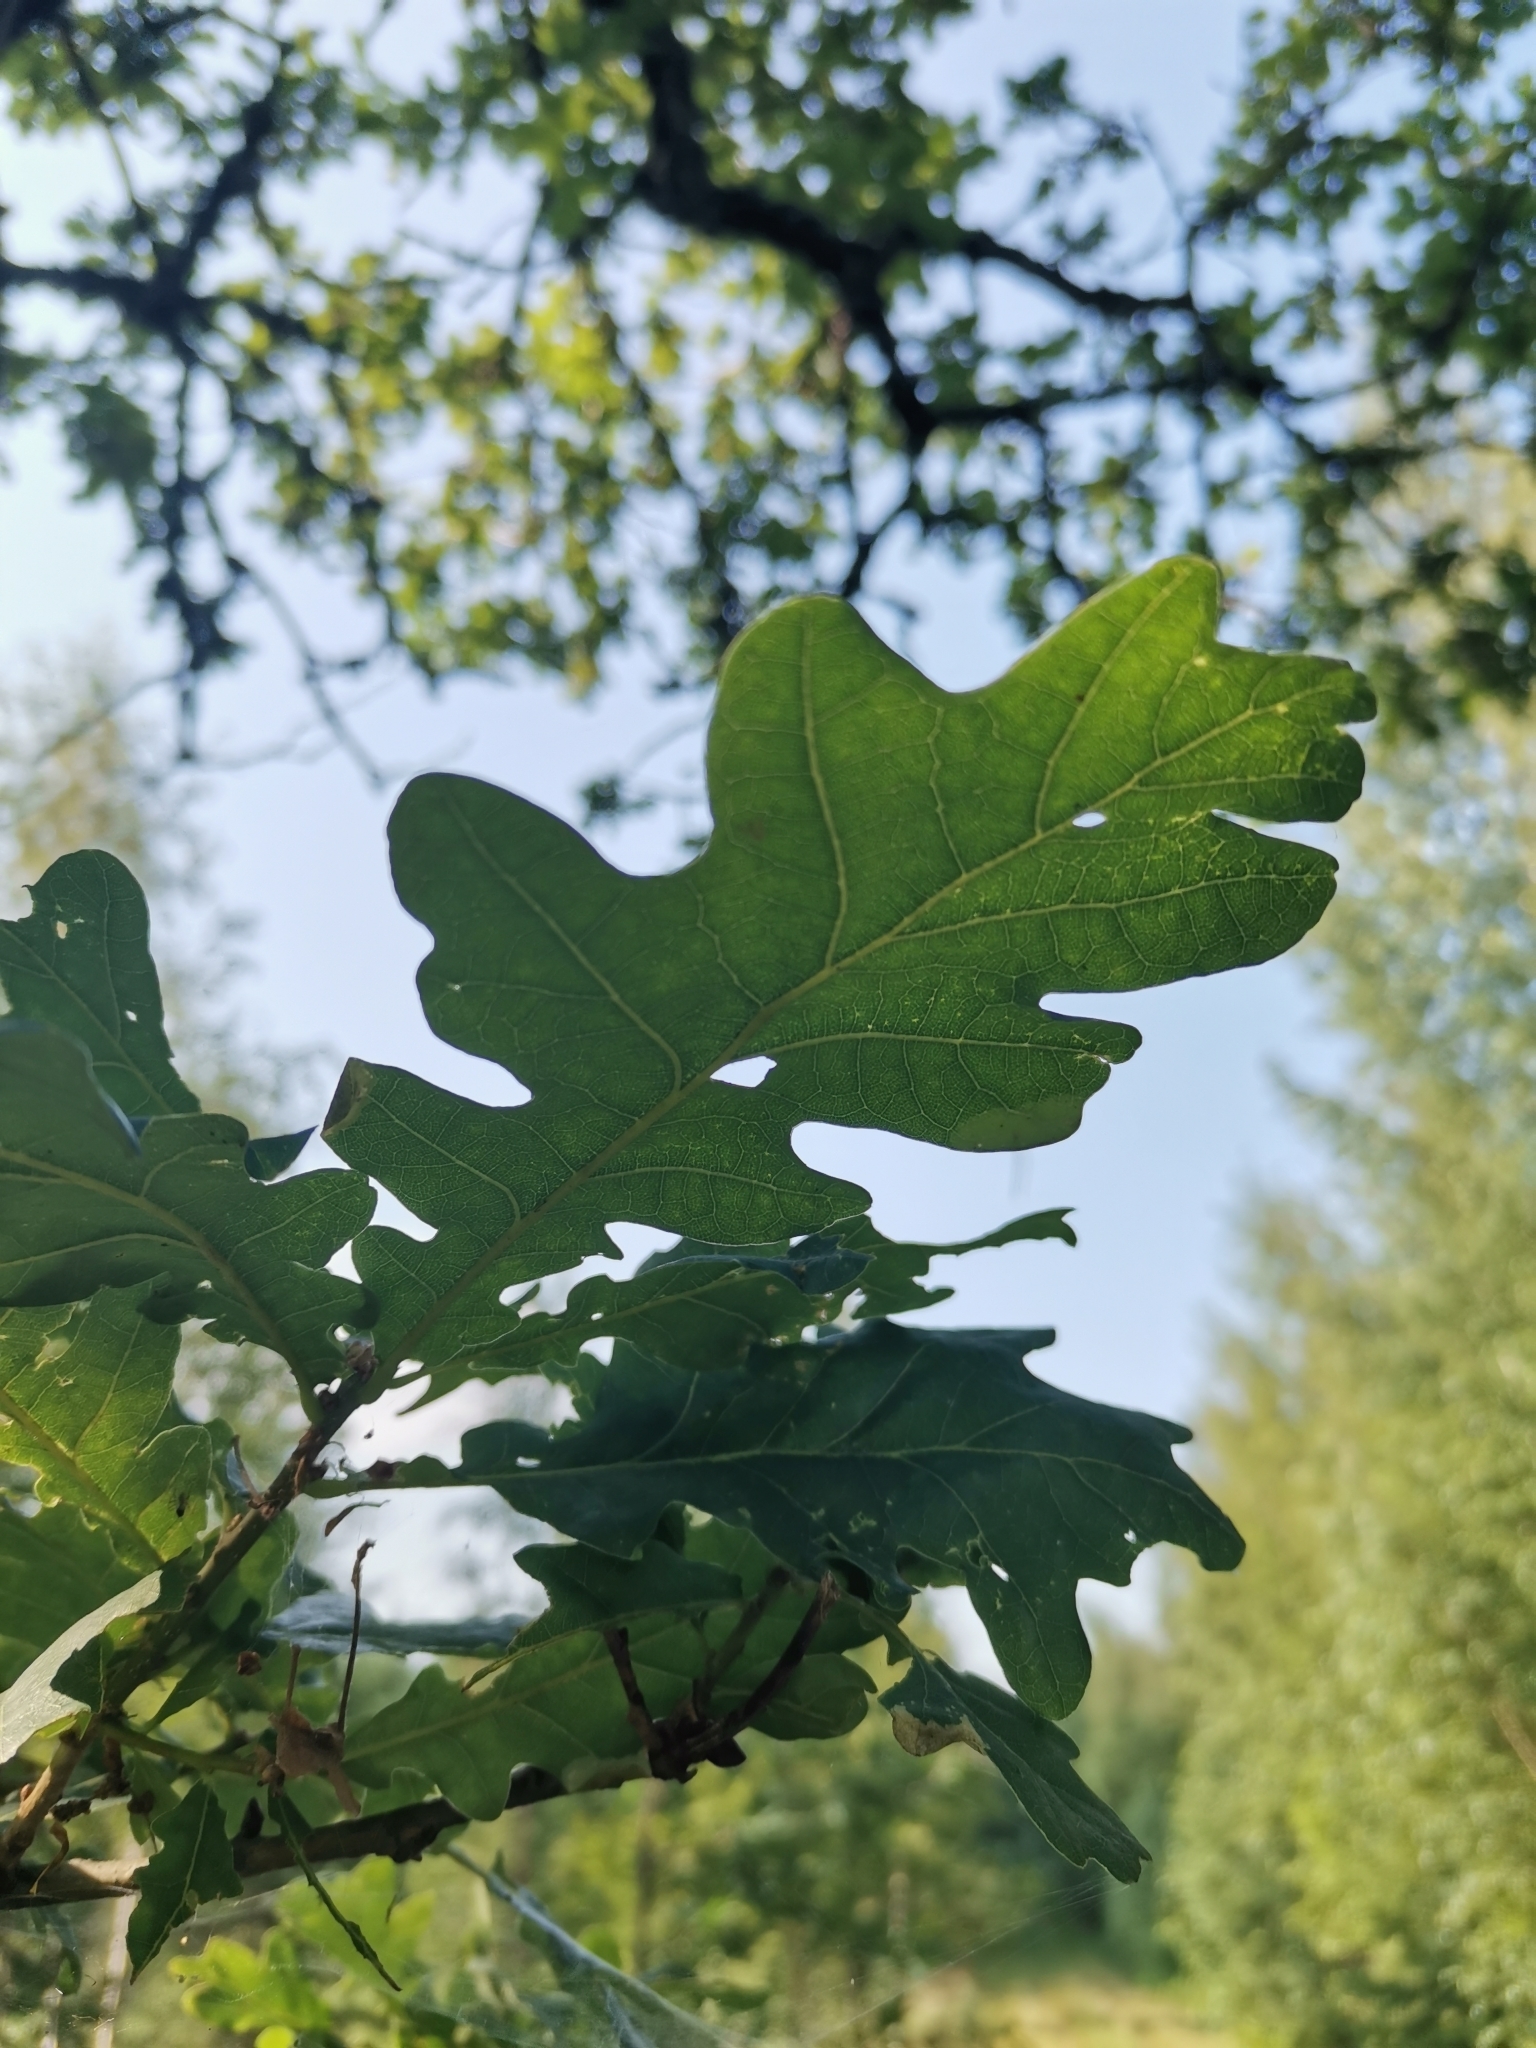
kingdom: Plantae
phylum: Tracheophyta
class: Magnoliopsida
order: Fagales
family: Fagaceae
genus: Quercus
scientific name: Quercus robur
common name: Pedunculate oak
